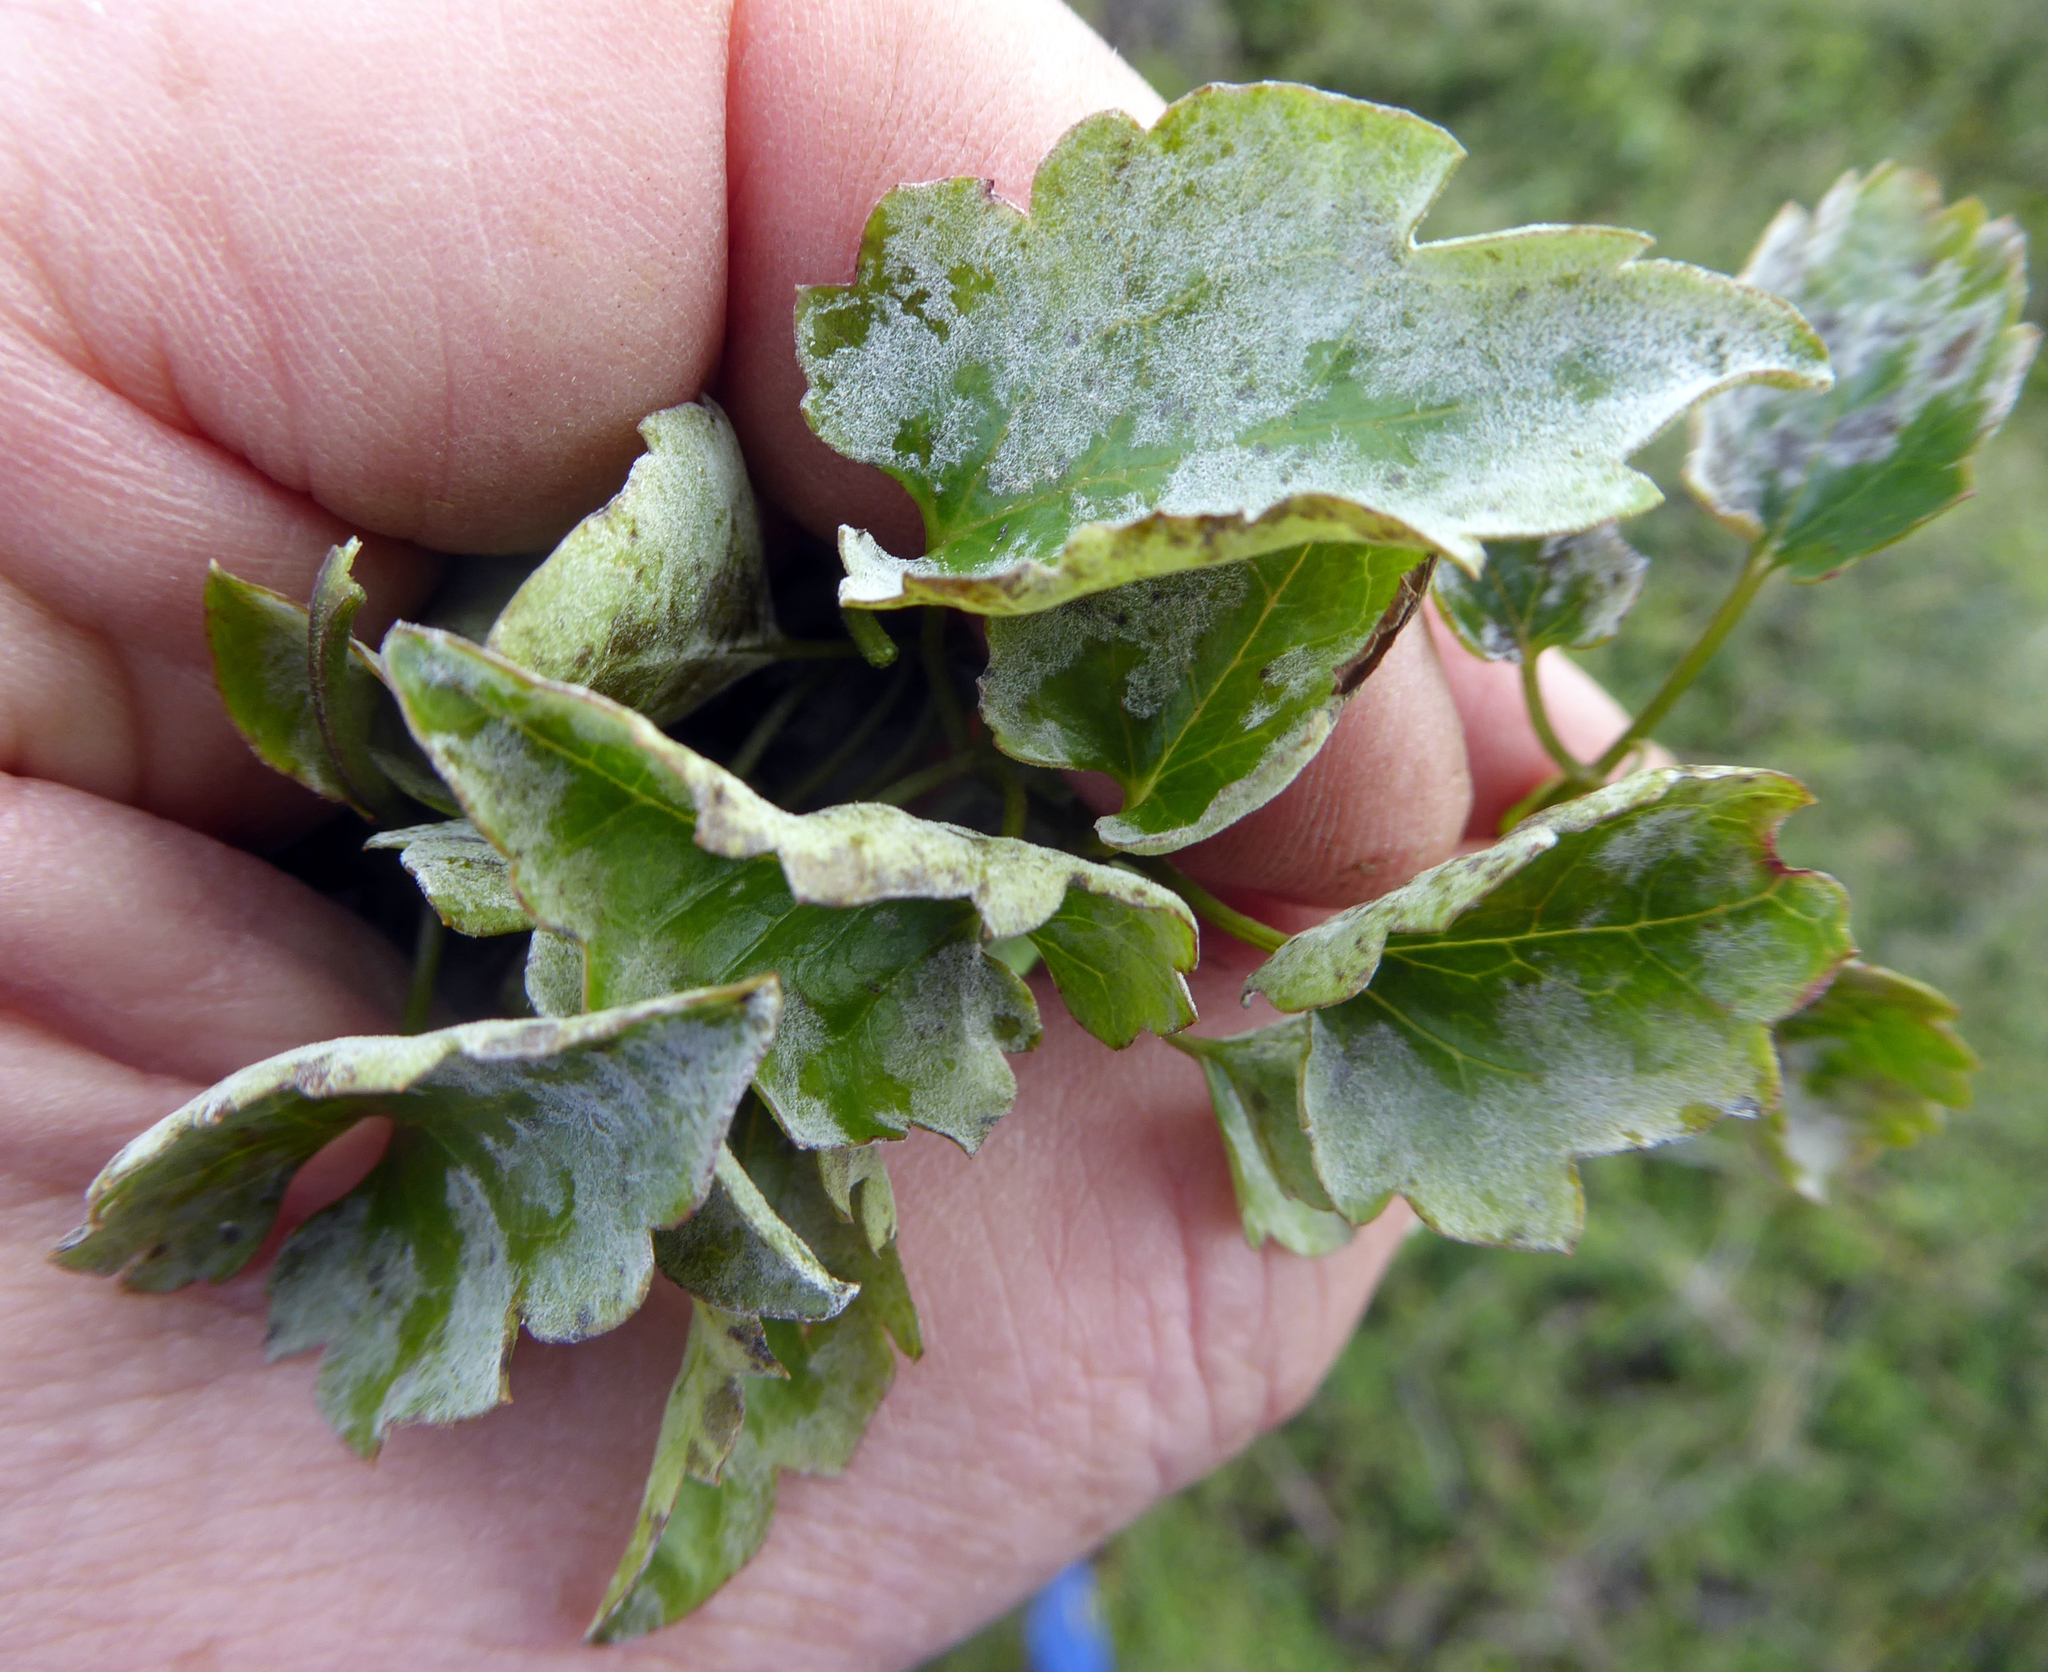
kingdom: Fungi
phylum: Ascomycota
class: Leotiomycetes
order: Helotiales
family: Erysiphaceae
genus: Erysiphe
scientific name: Erysiphe aquilegiae
